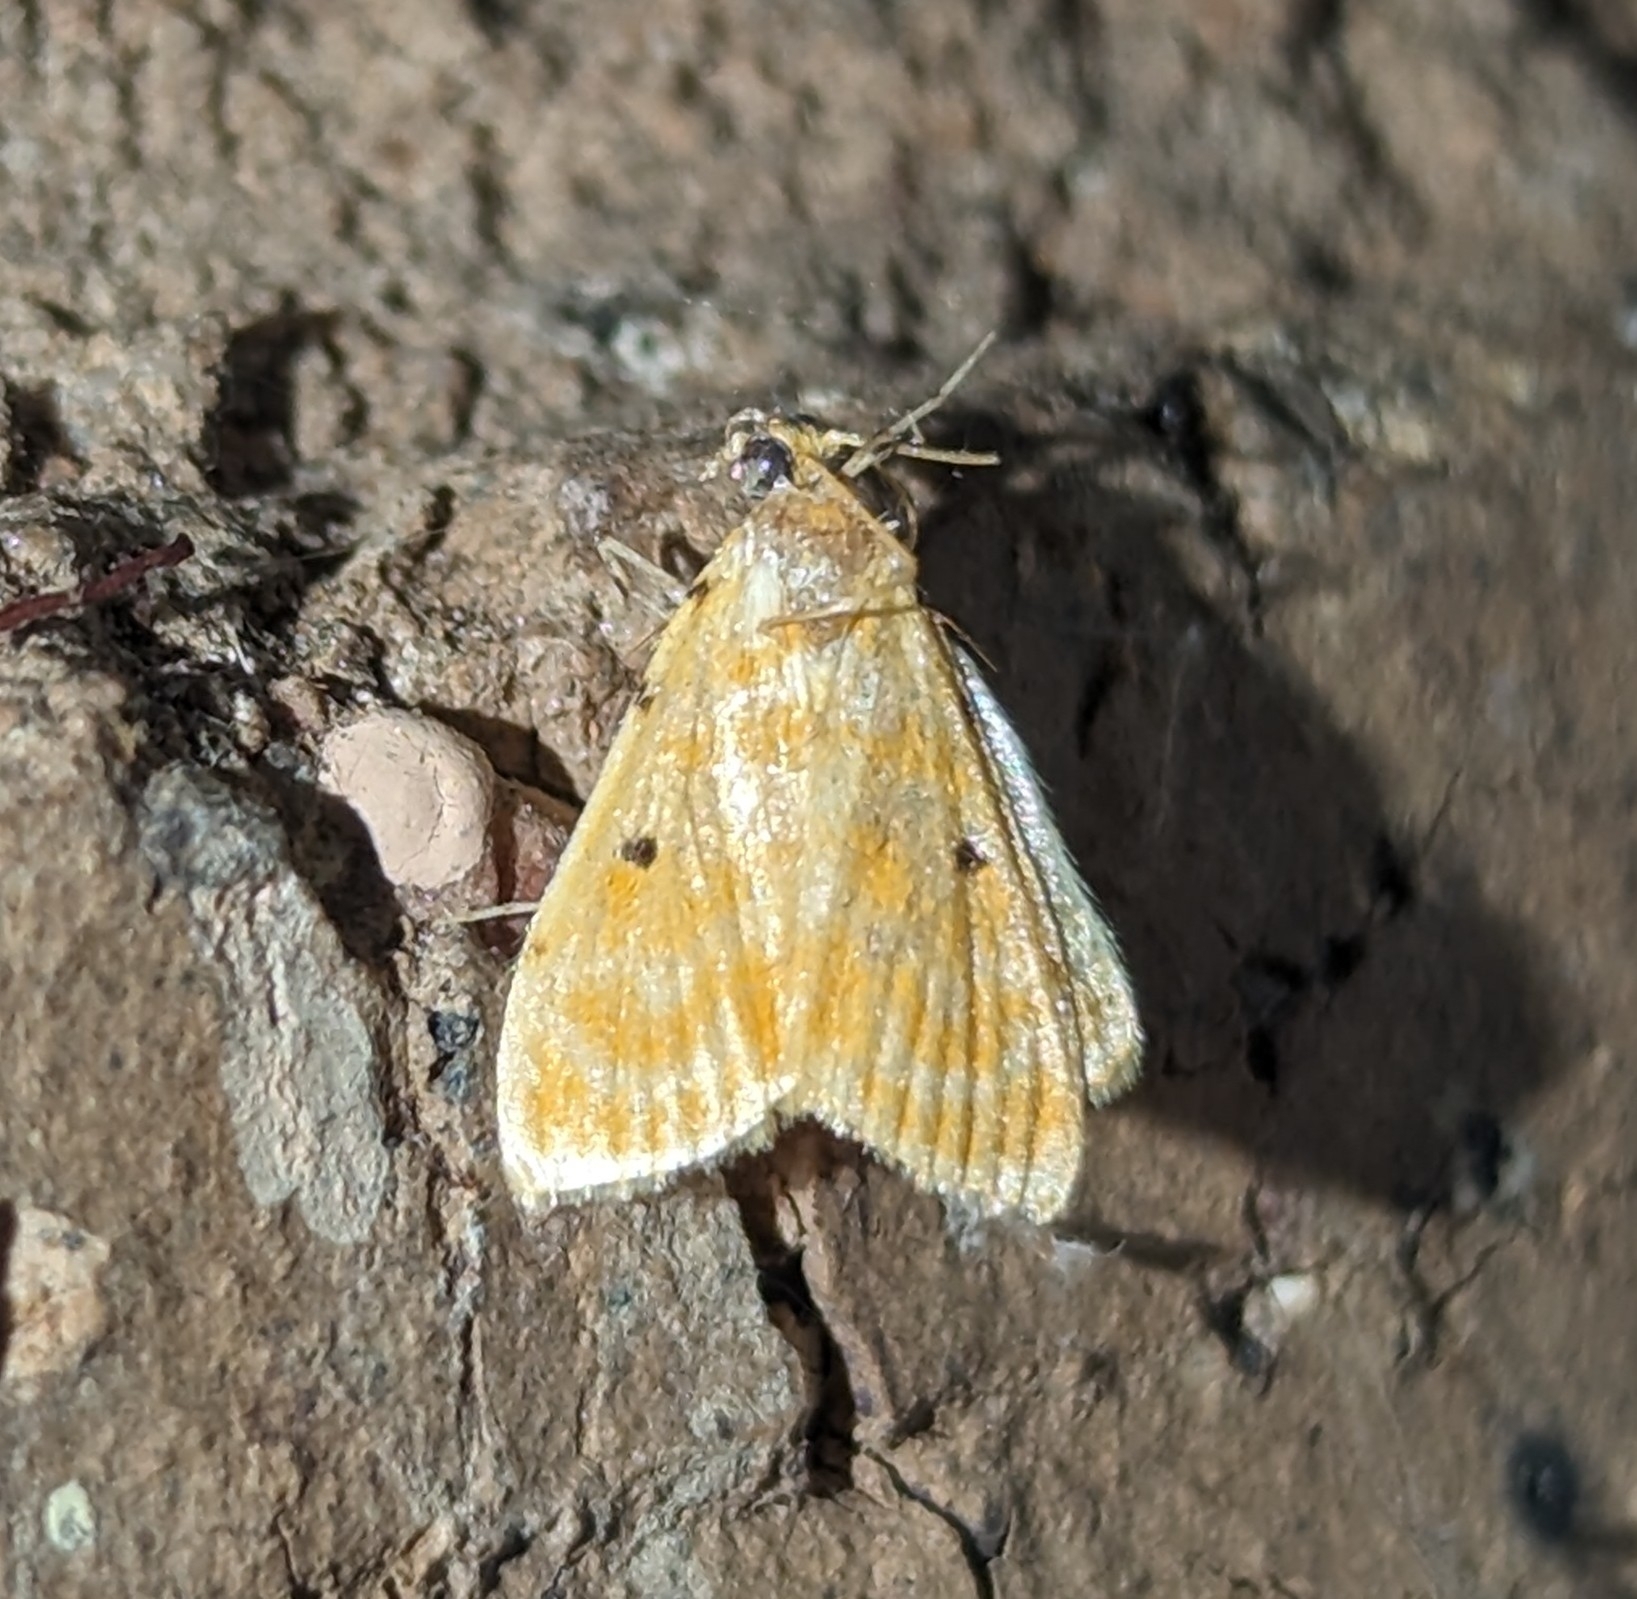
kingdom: Animalia
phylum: Arthropoda
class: Insecta
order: Lepidoptera
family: Crambidae
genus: Notarcha
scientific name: Notarcha quaternalis
